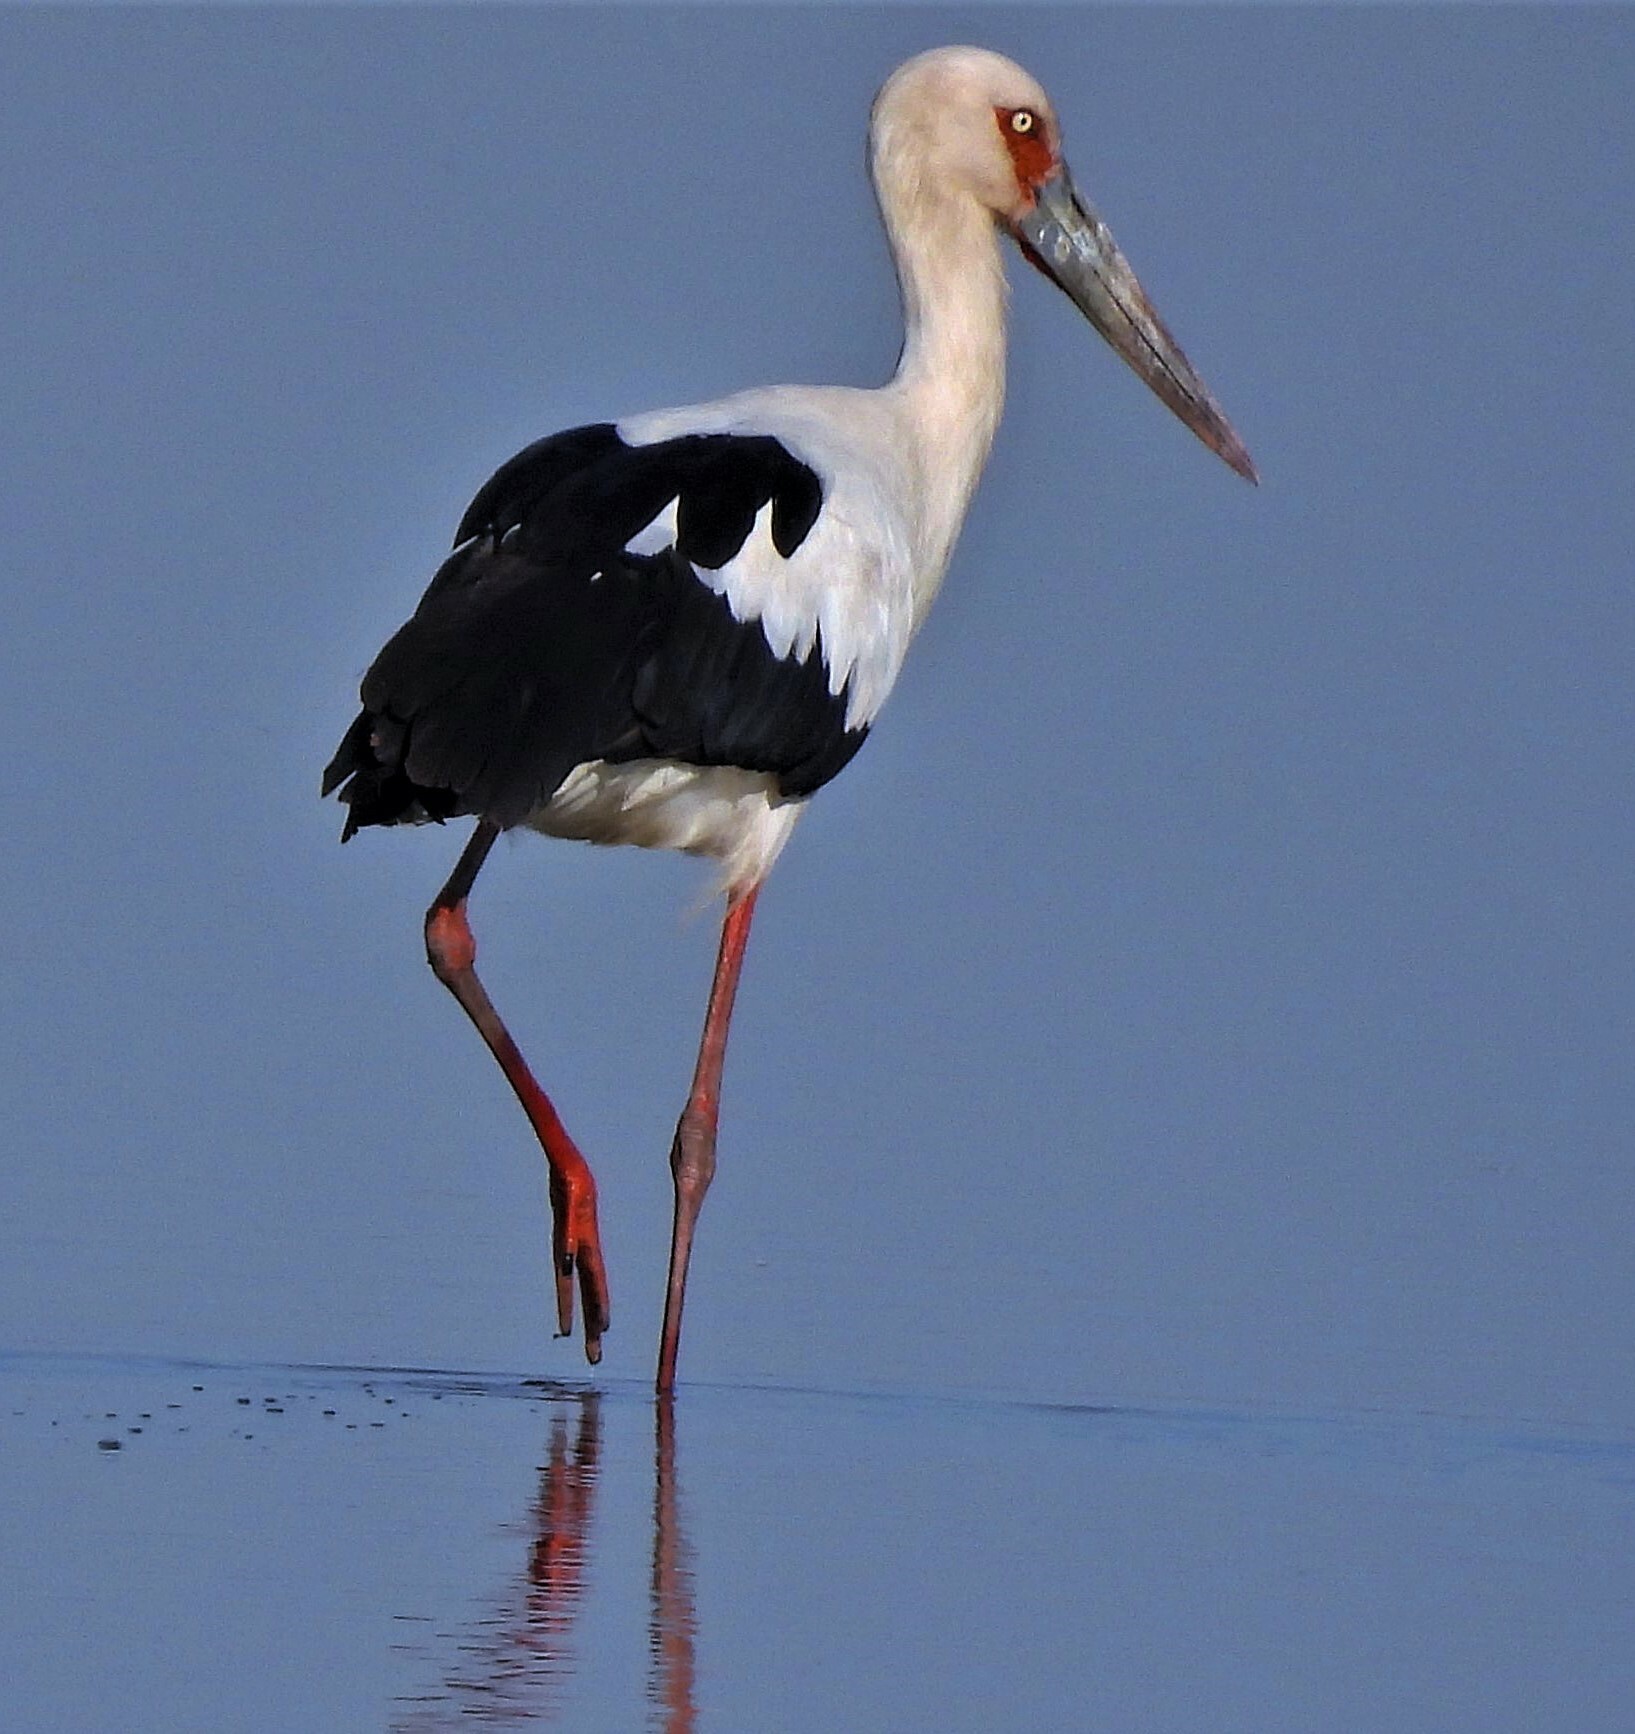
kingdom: Animalia
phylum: Chordata
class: Aves
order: Ciconiiformes
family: Ciconiidae
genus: Ciconia
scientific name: Ciconia maguari
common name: Maguari stork
